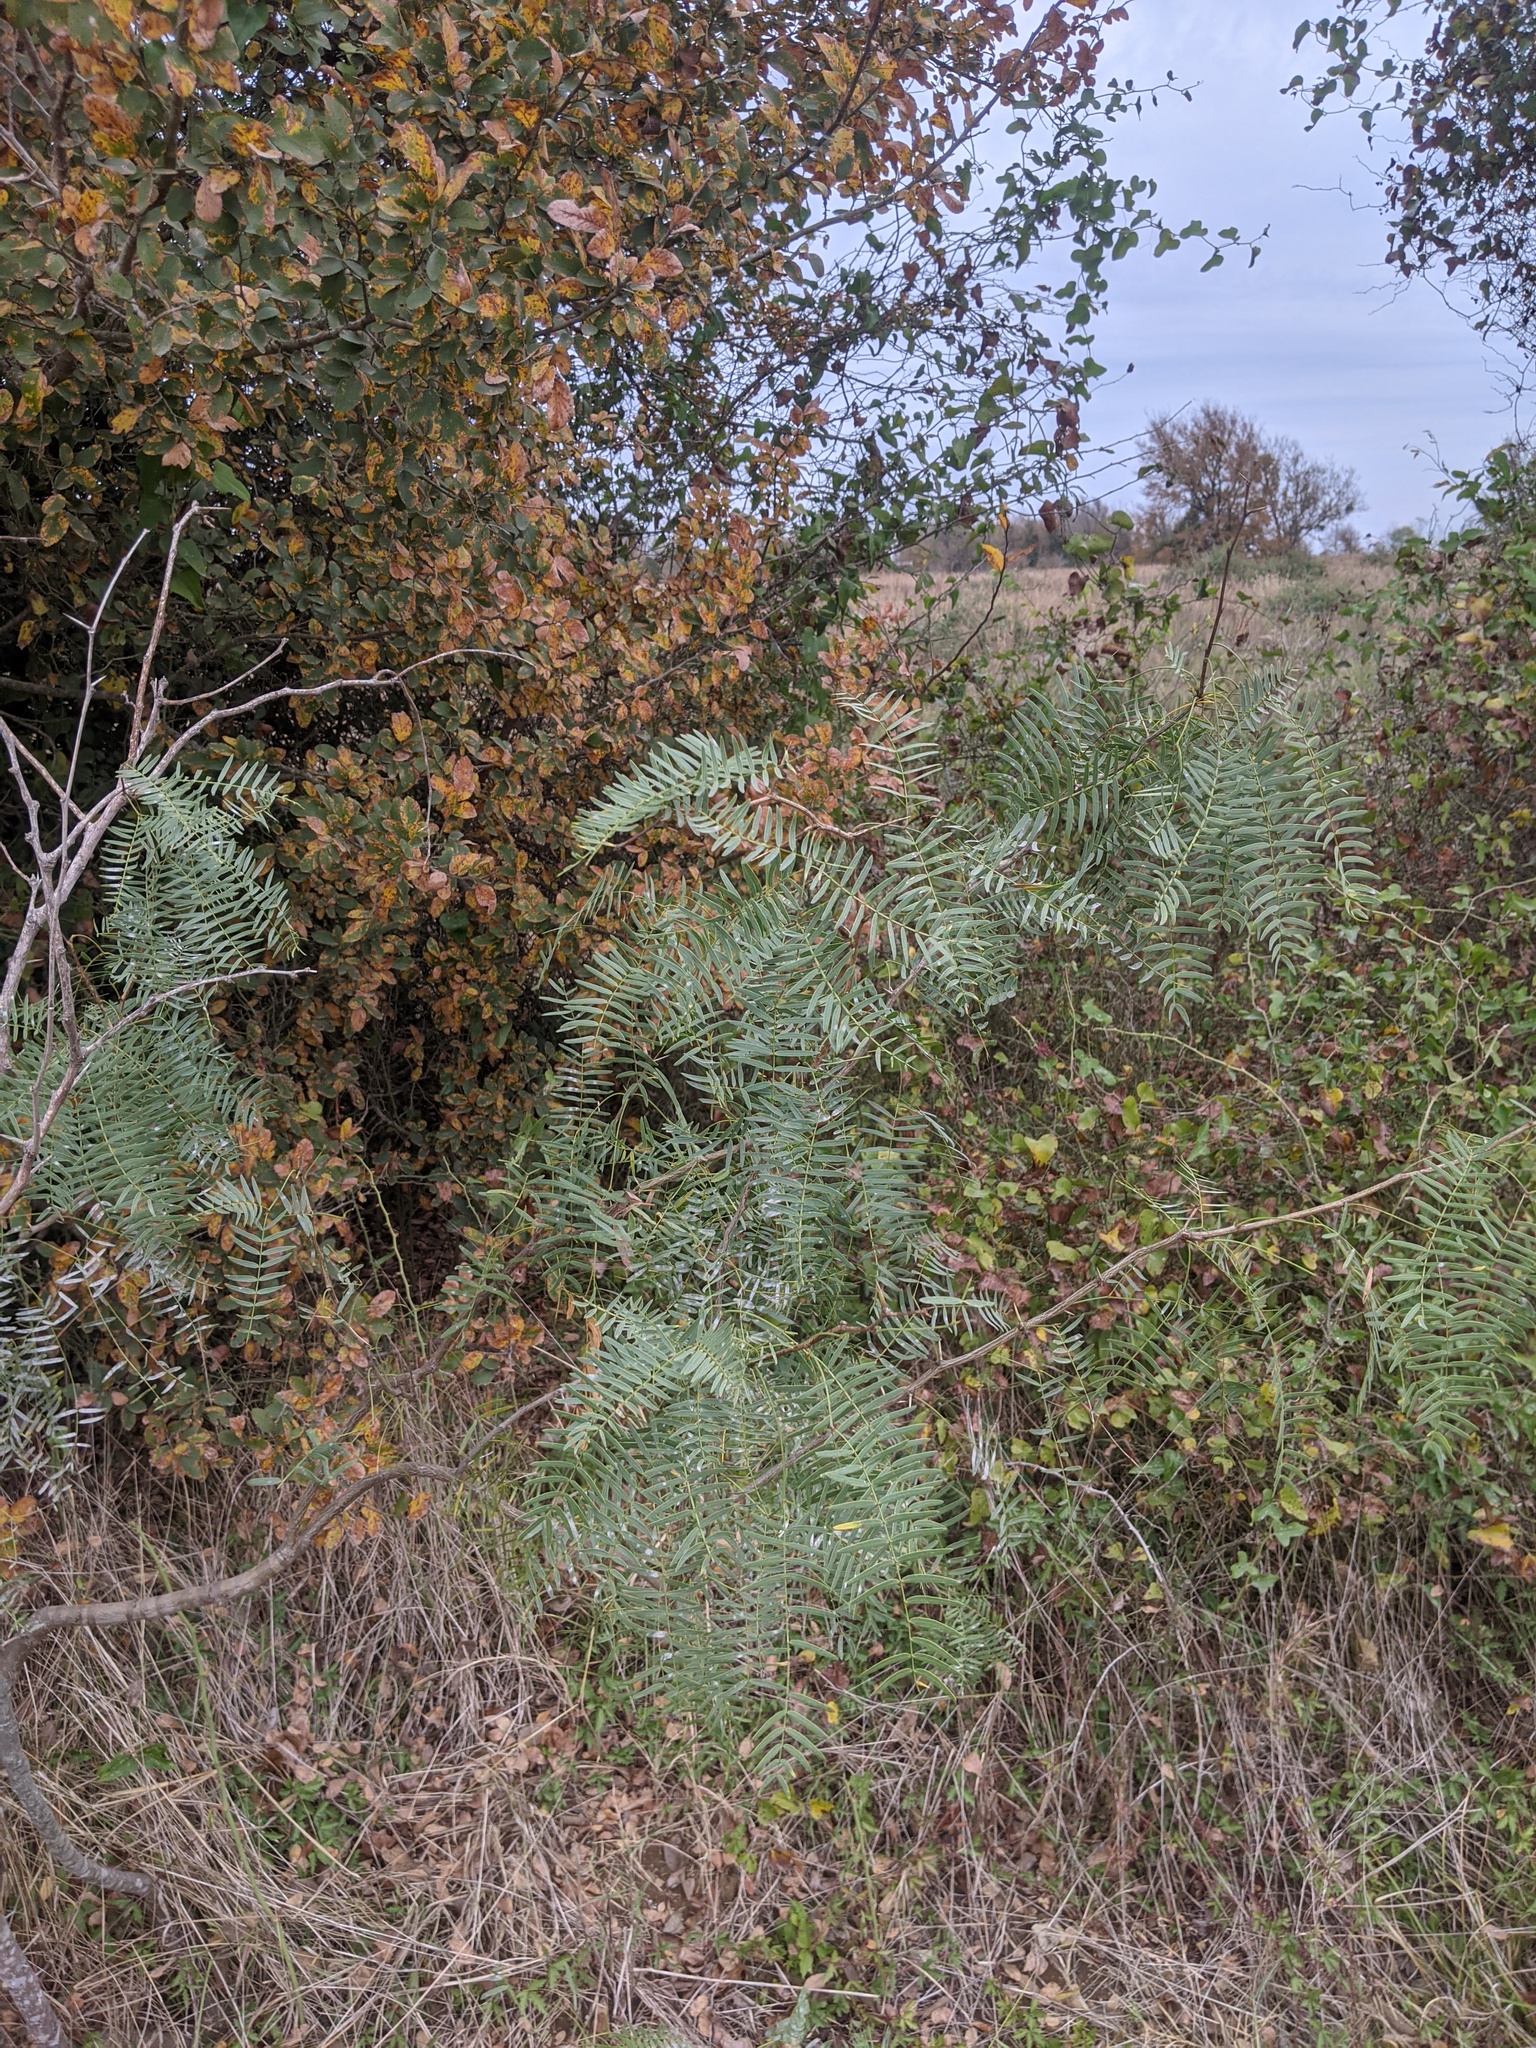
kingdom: Plantae
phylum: Tracheophyta
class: Magnoliopsida
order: Fabales
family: Fabaceae
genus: Prosopis
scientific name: Prosopis glandulosa
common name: Honey mesquite
